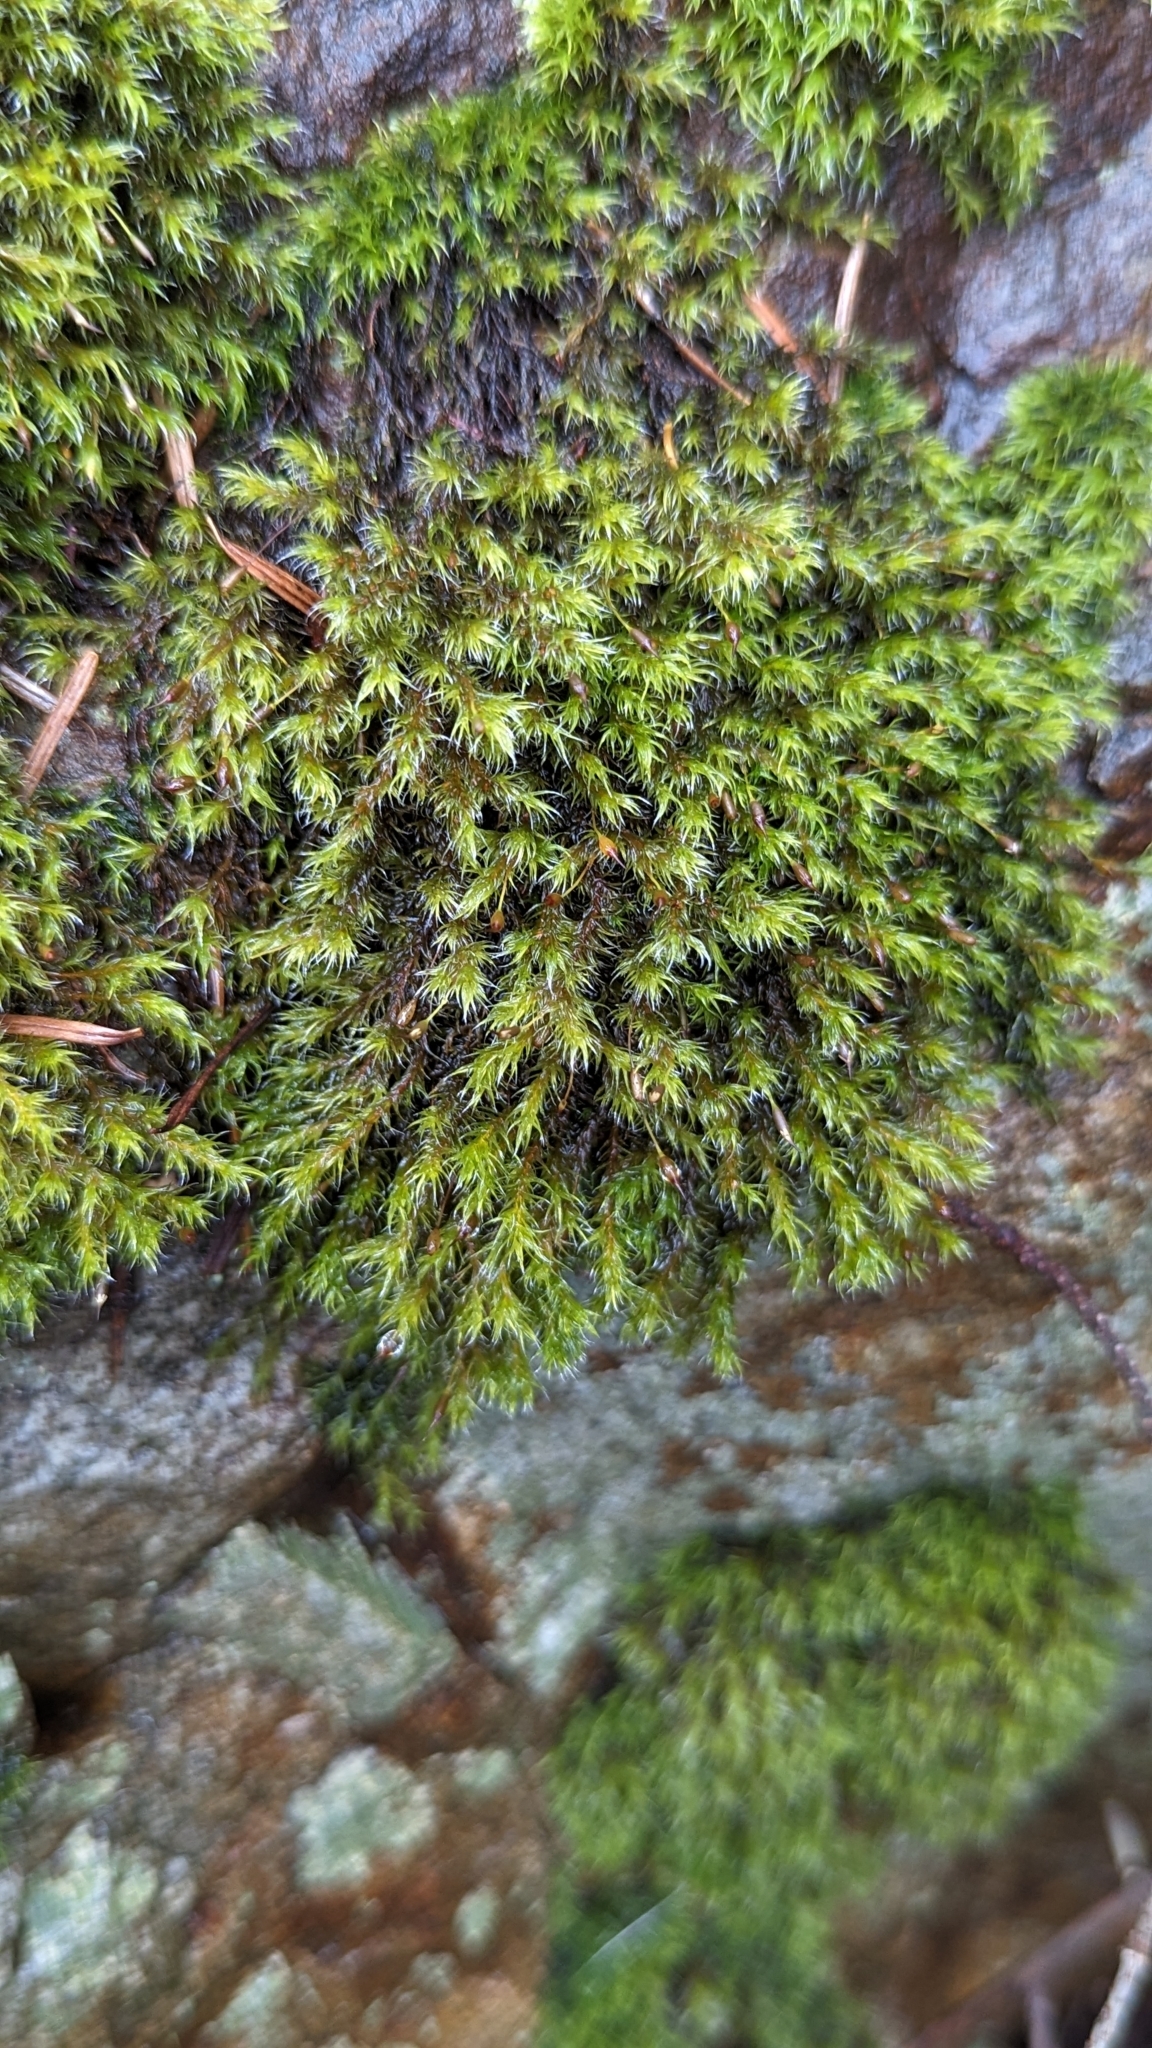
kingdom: Plantae
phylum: Bryophyta
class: Bryopsida
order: Grimmiales
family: Grimmiaceae
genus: Bucklandiella
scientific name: Bucklandiella heterosticha
